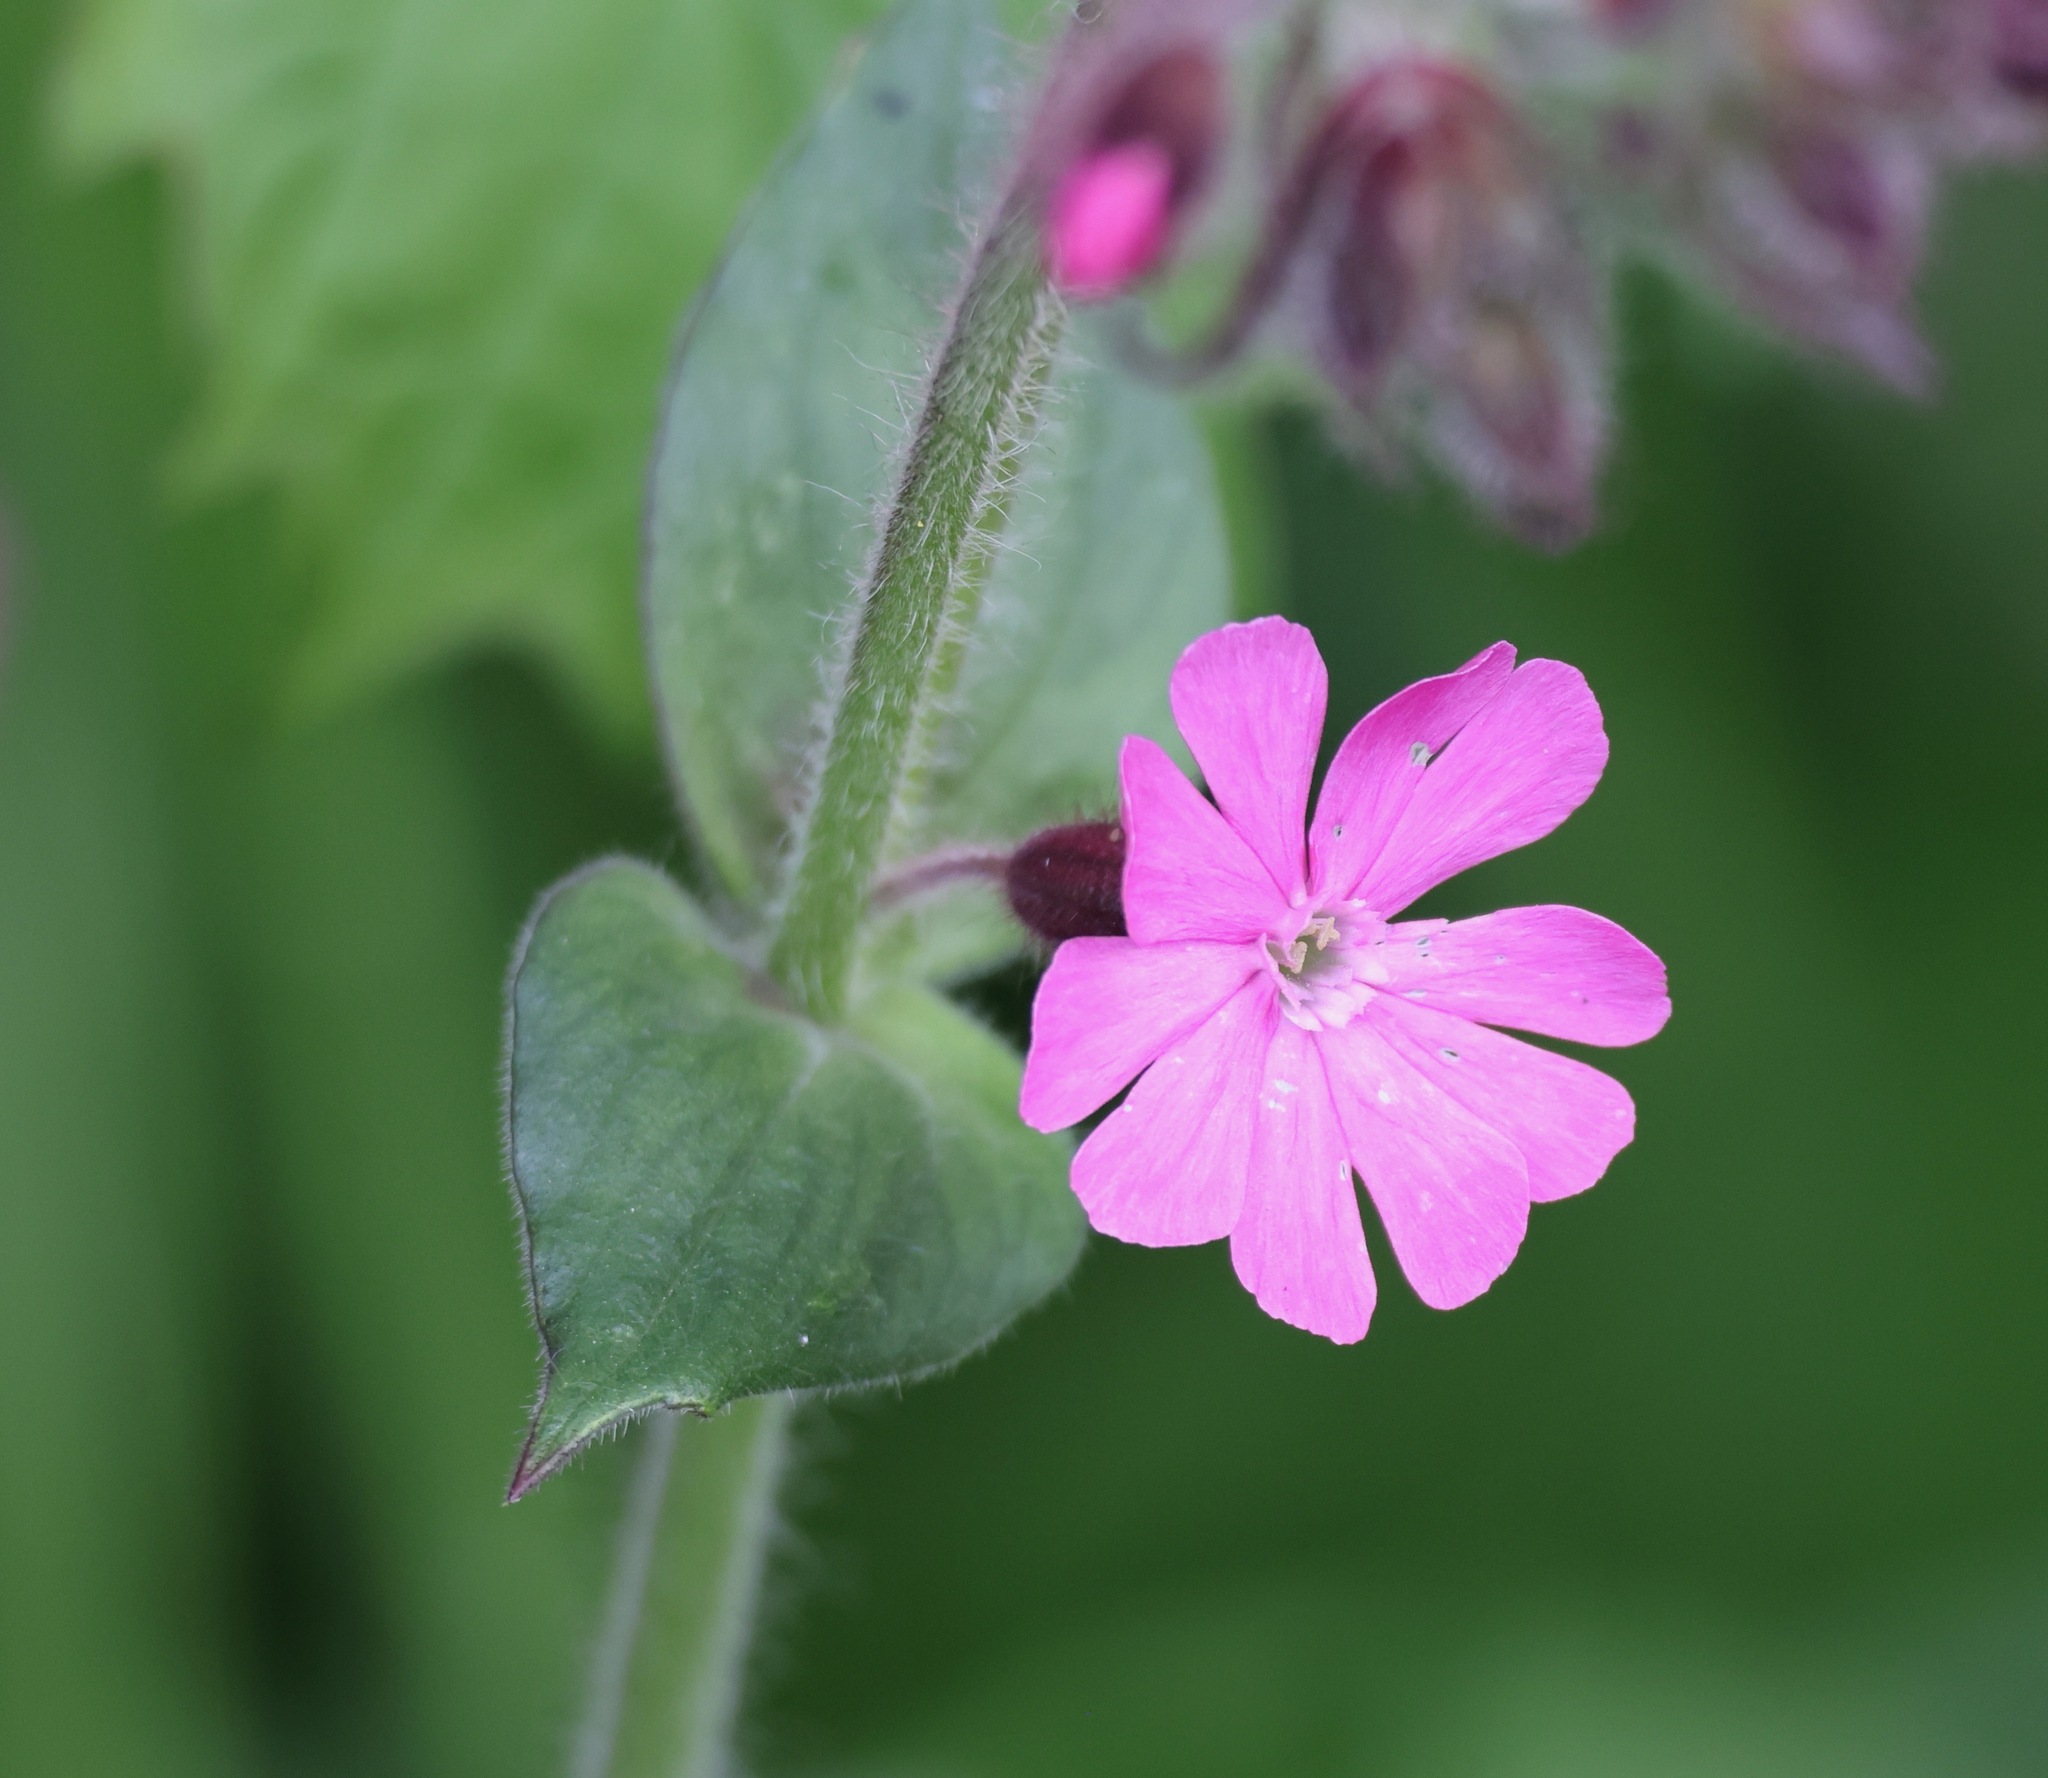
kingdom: Plantae
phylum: Tracheophyta
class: Magnoliopsida
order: Caryophyllales
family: Caryophyllaceae
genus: Silene
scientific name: Silene dioica
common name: Red campion
